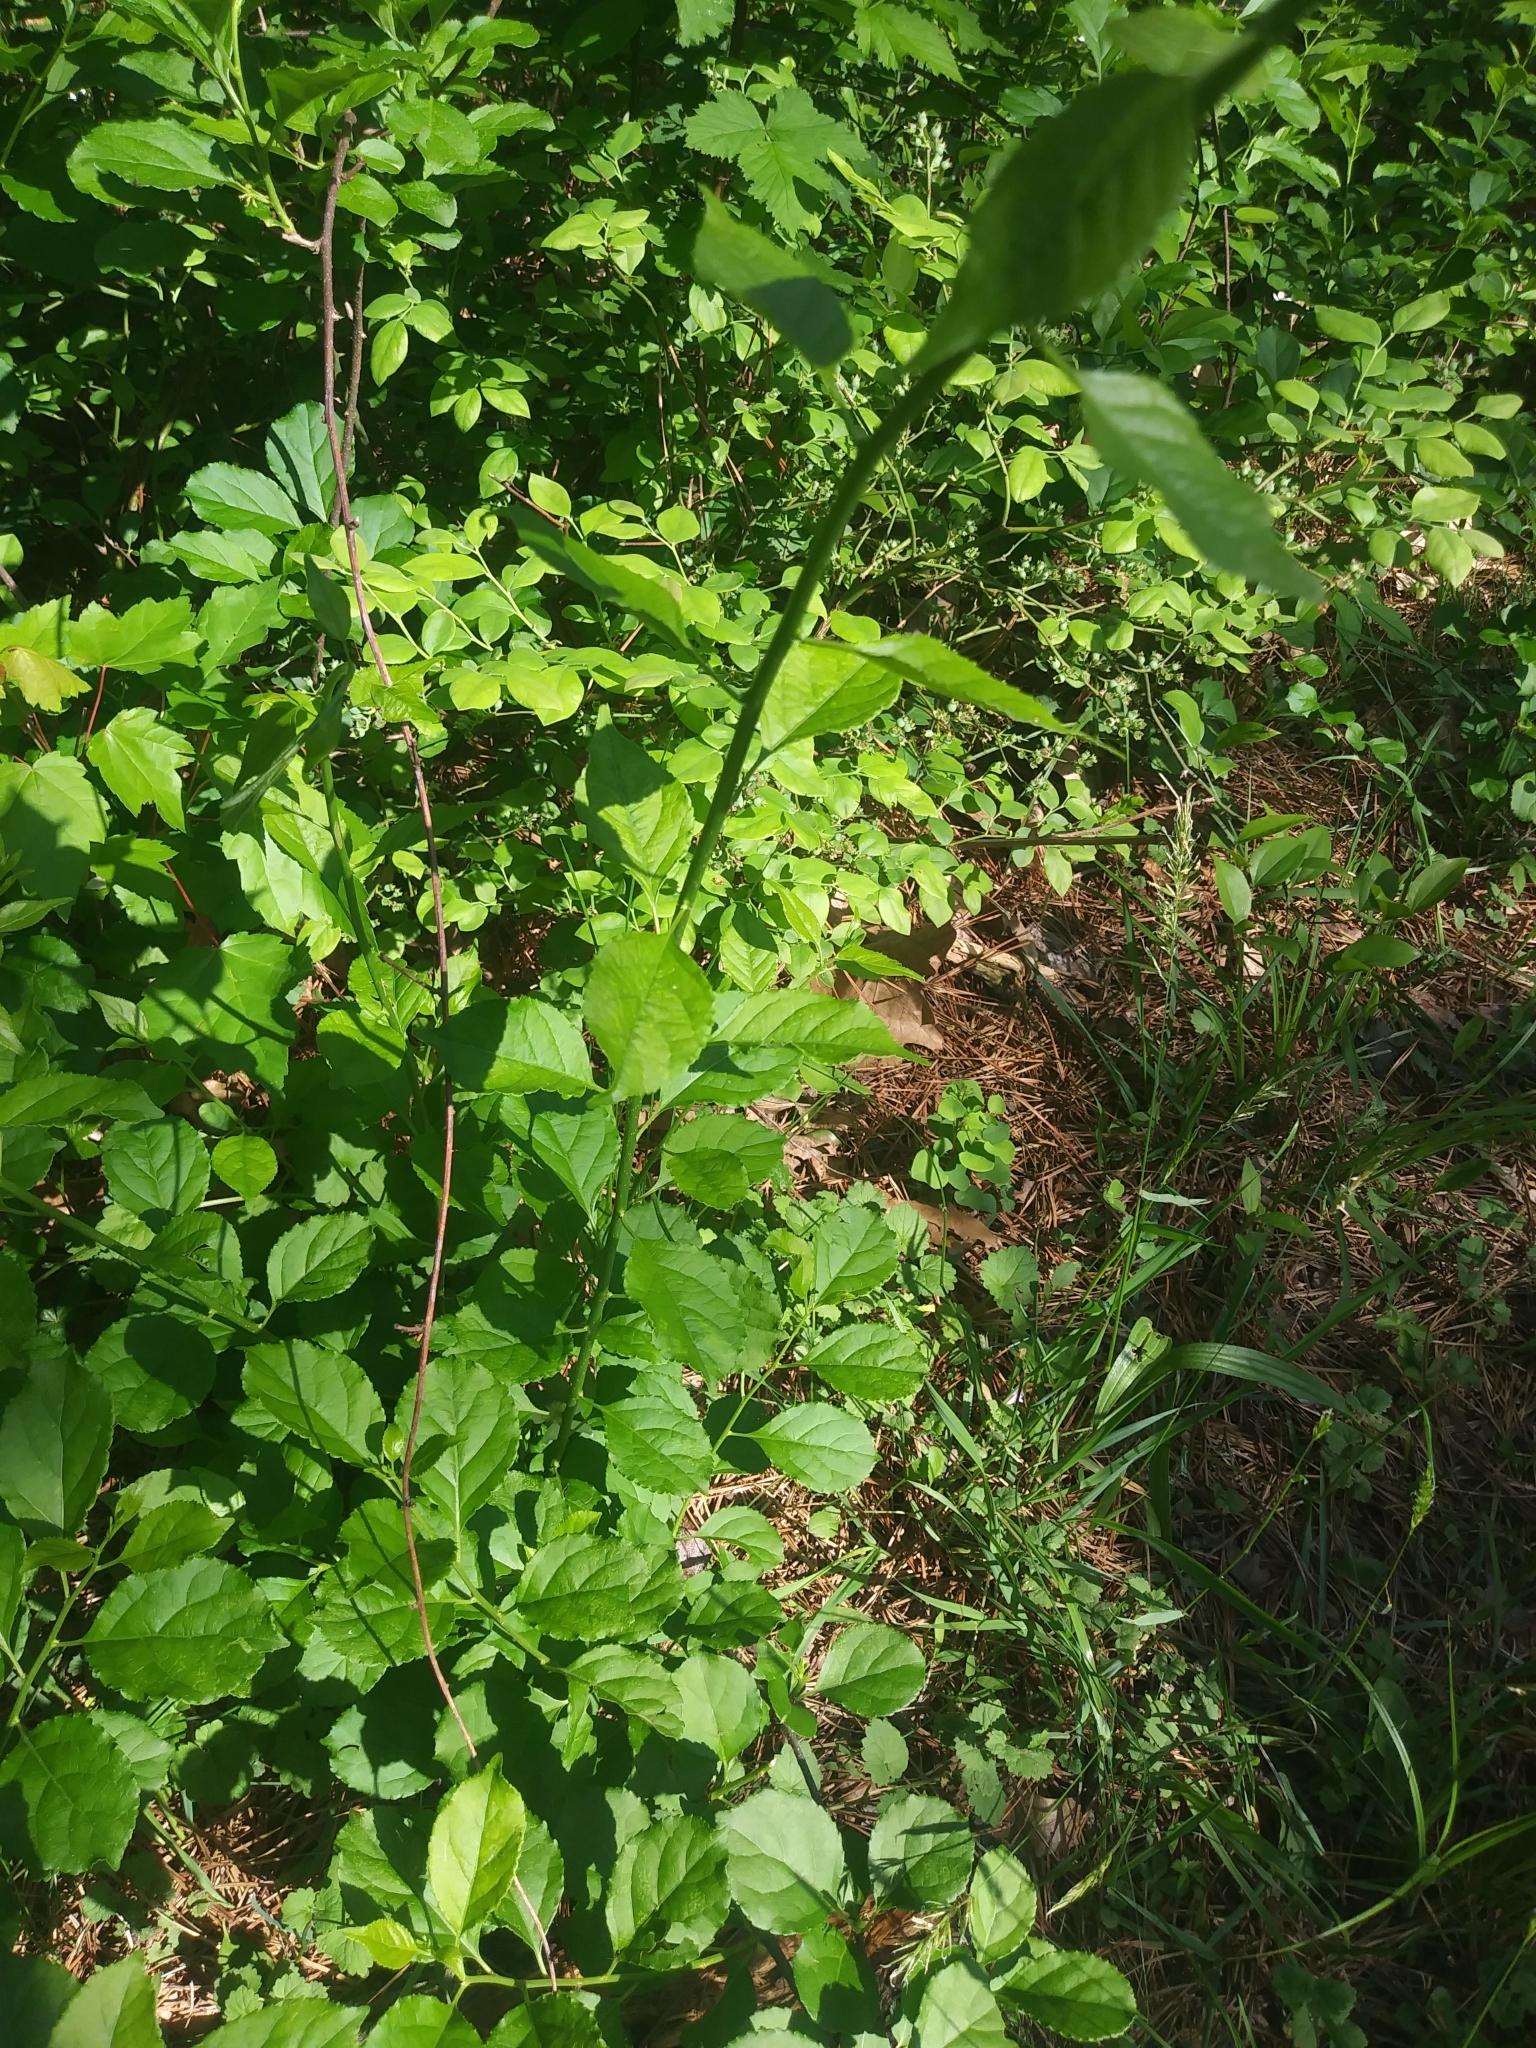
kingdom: Plantae
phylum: Tracheophyta
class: Magnoliopsida
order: Celastrales
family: Celastraceae
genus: Celastrus
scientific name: Celastrus orbiculatus
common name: Oriental bittersweet
